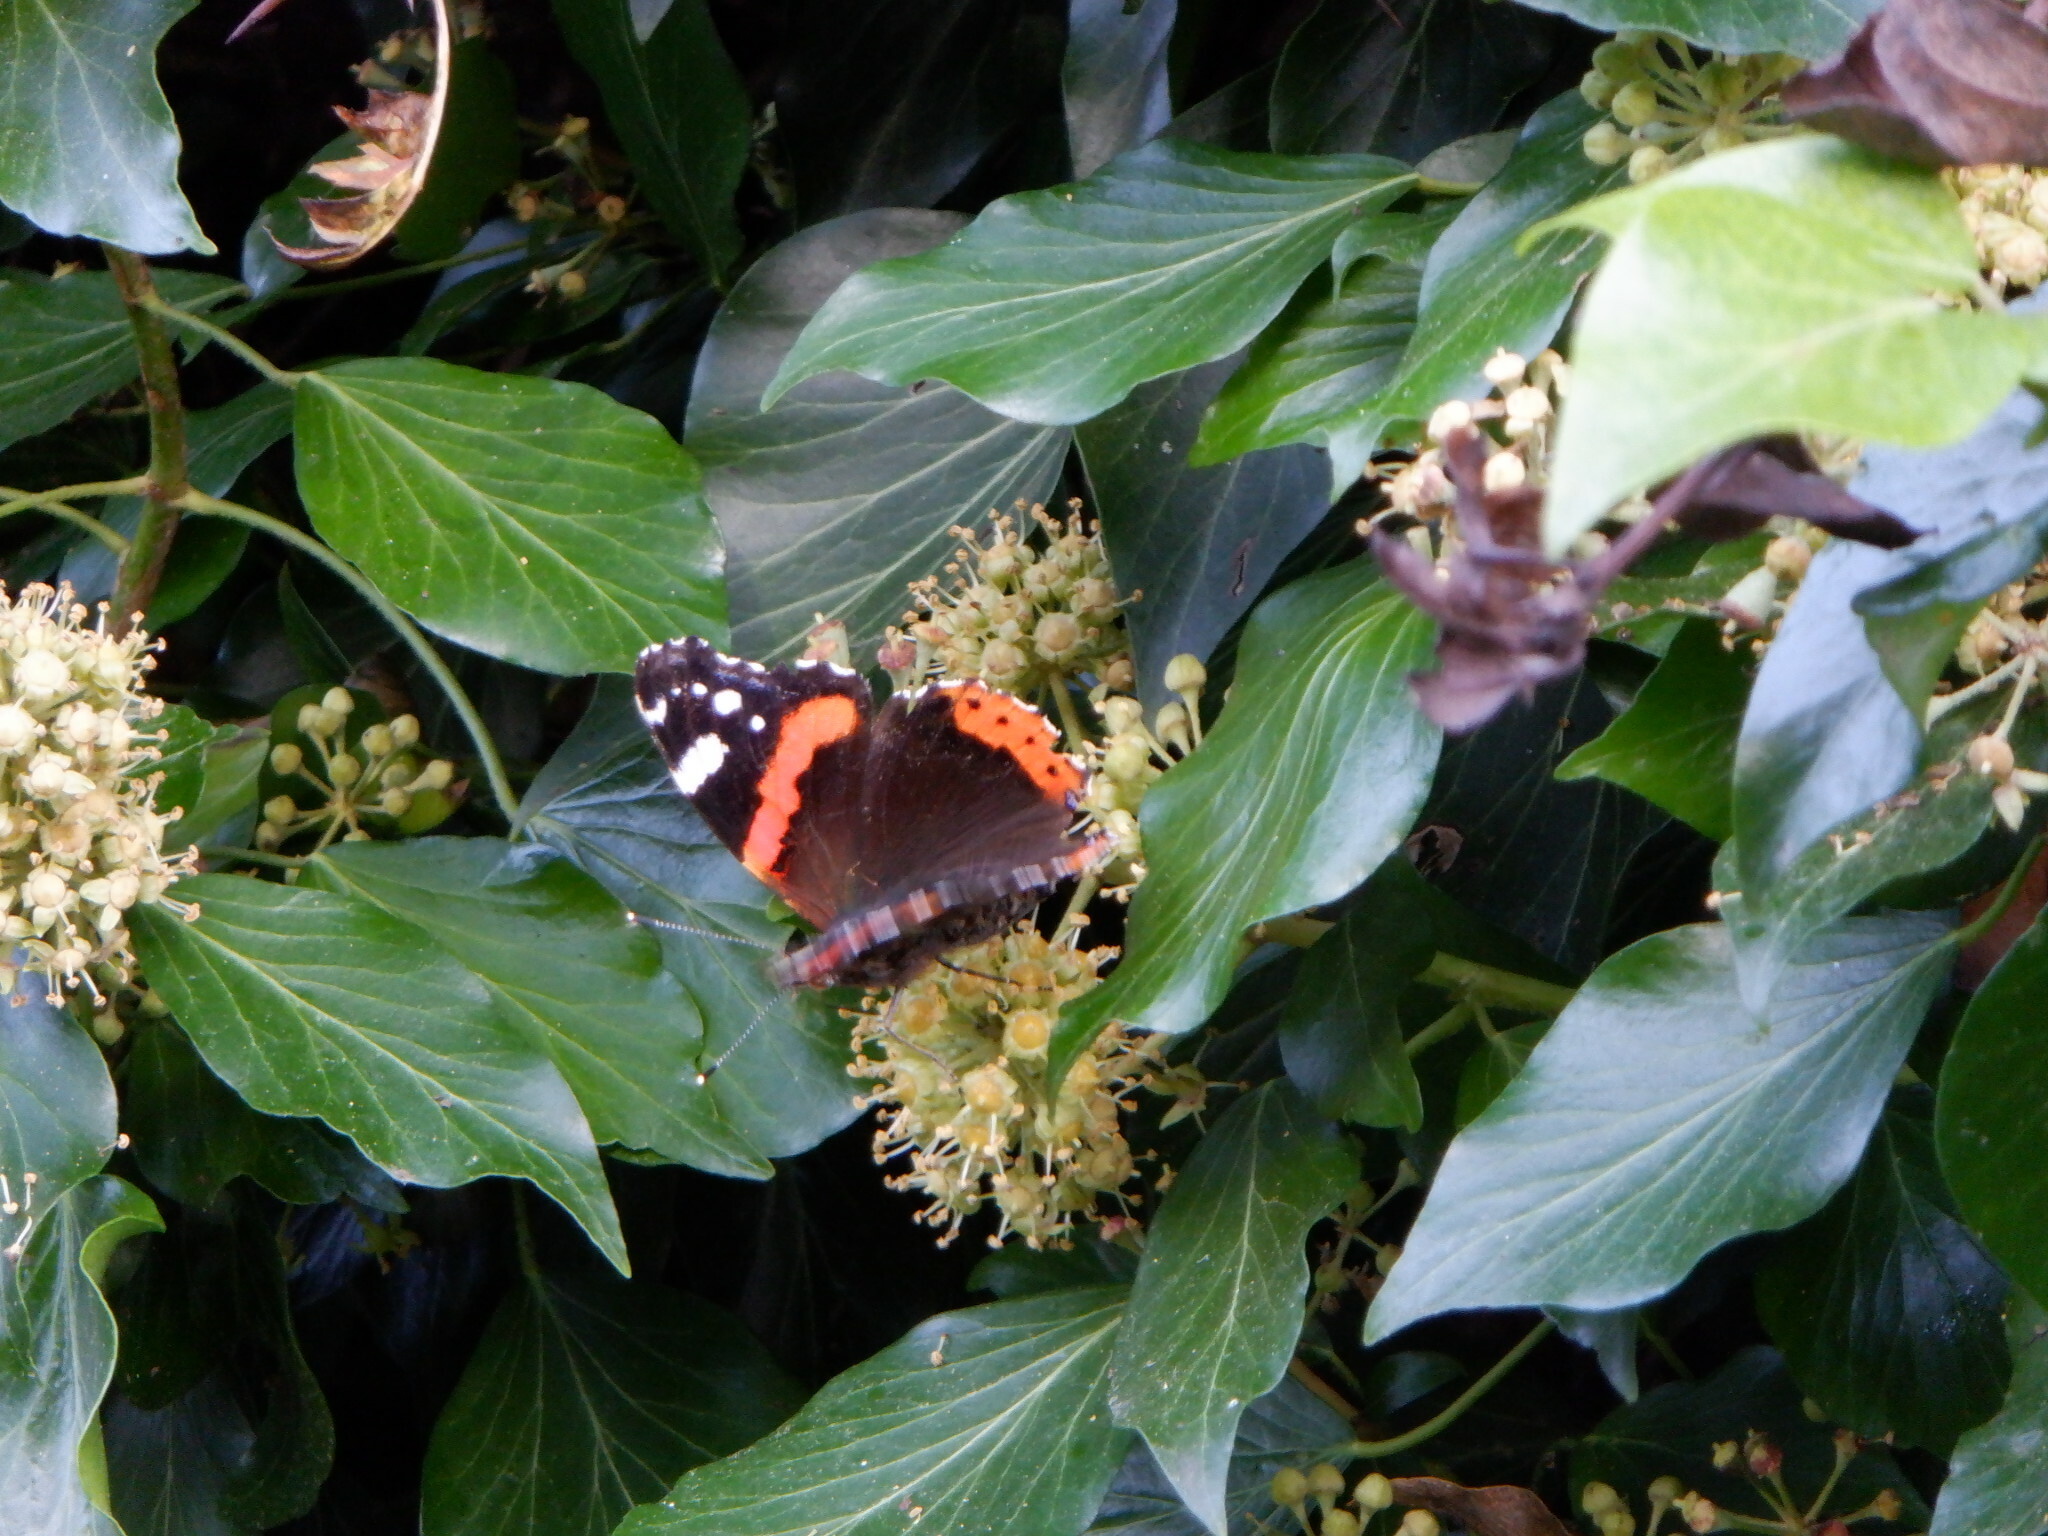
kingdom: Animalia
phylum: Arthropoda
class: Insecta
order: Lepidoptera
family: Nymphalidae
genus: Vanessa
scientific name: Vanessa atalanta
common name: Red admiral
